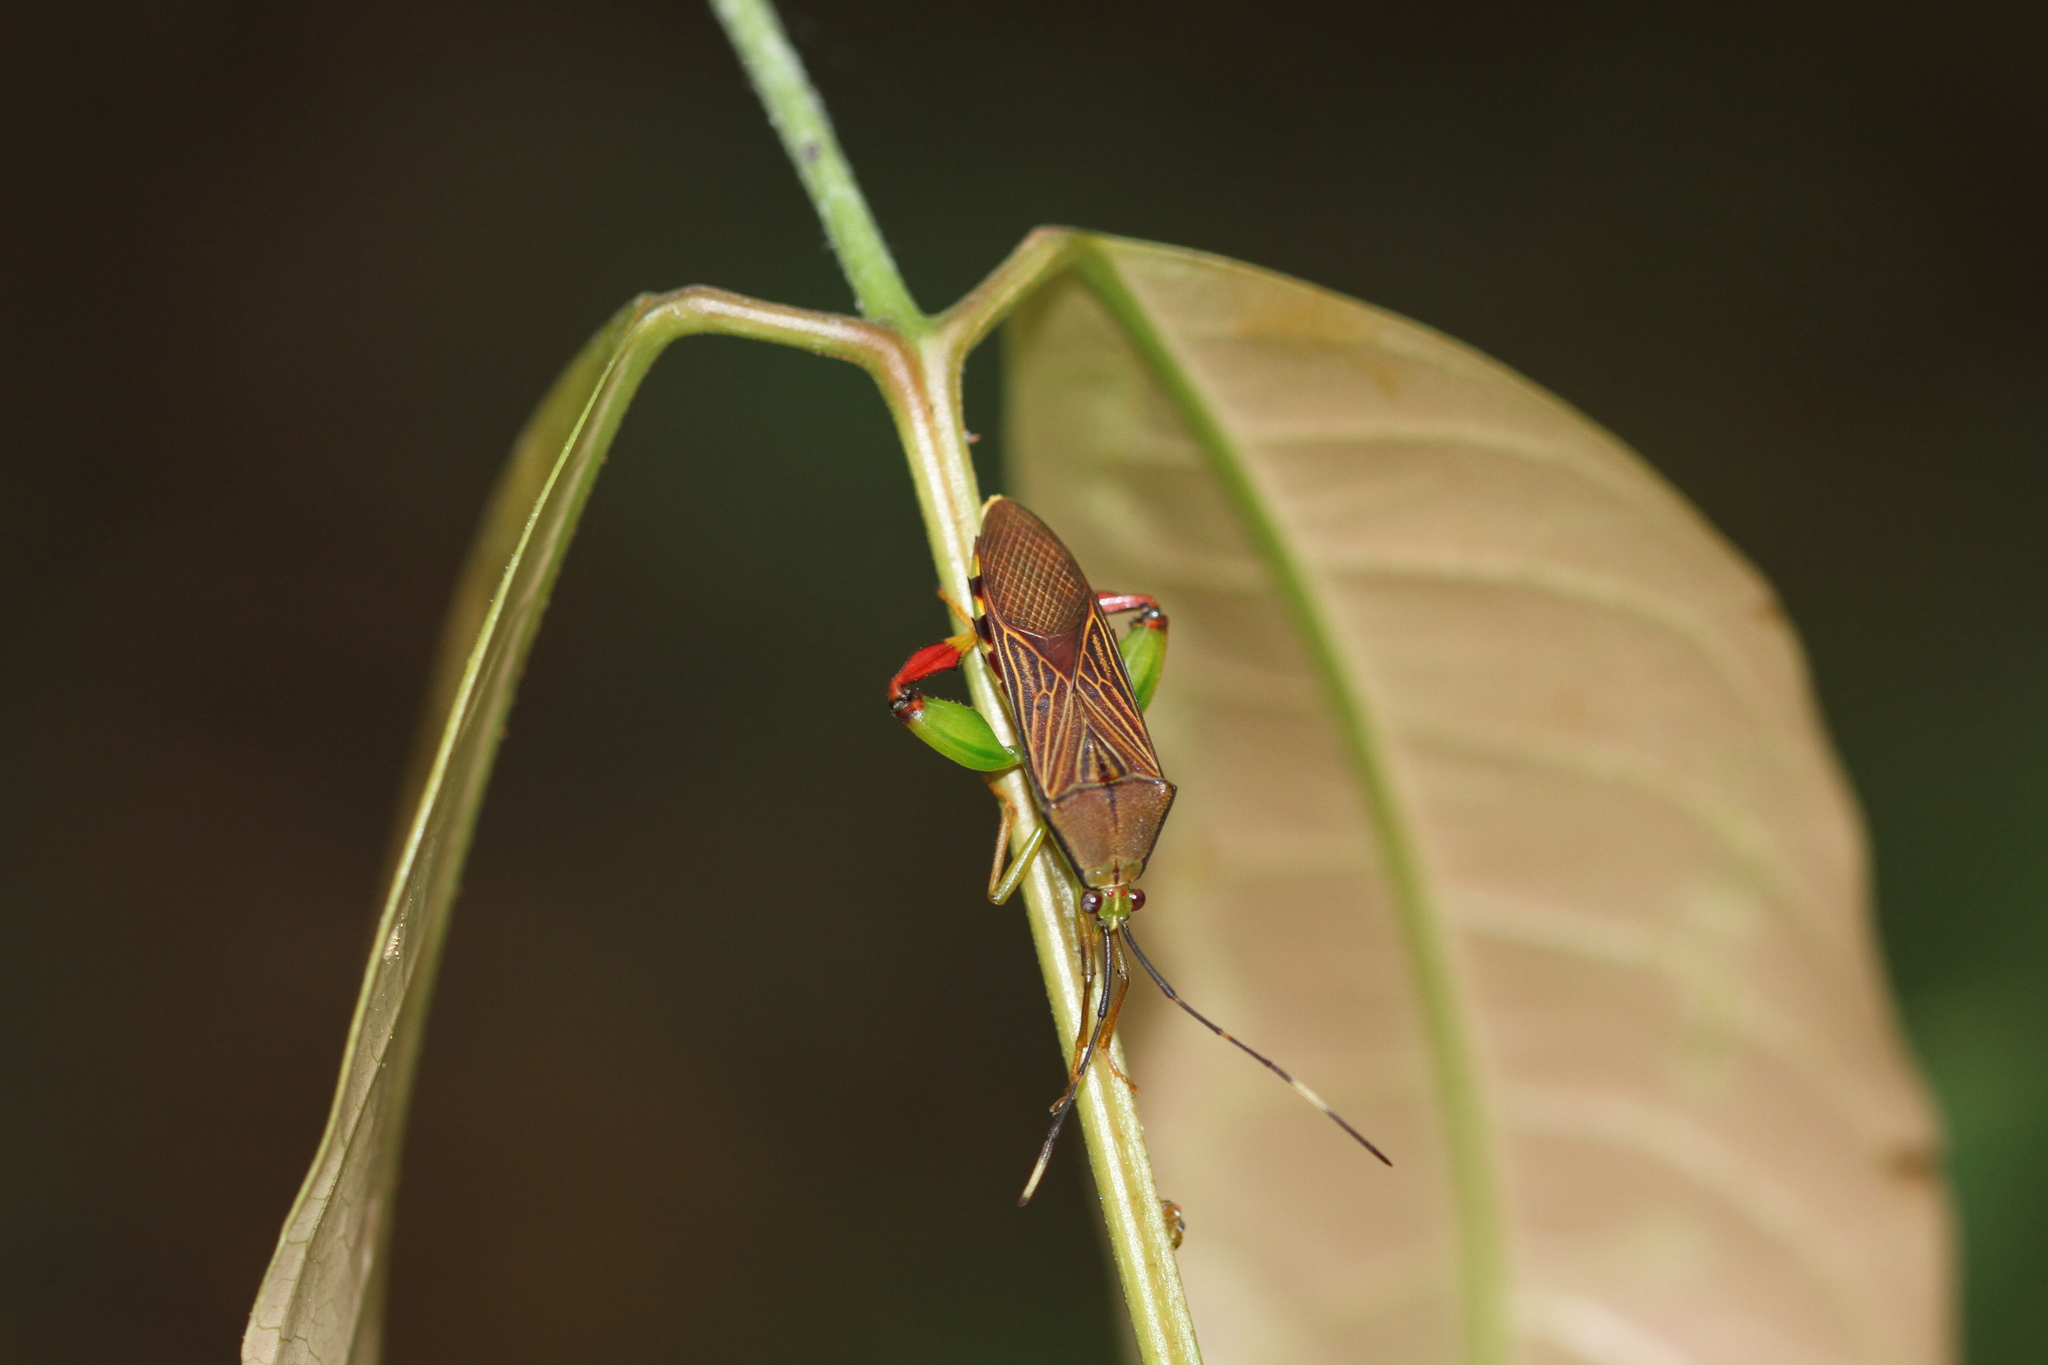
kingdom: Animalia
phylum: Arthropoda
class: Insecta
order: Hemiptera
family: Coreidae
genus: Melucha
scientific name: Melucha dilatata
